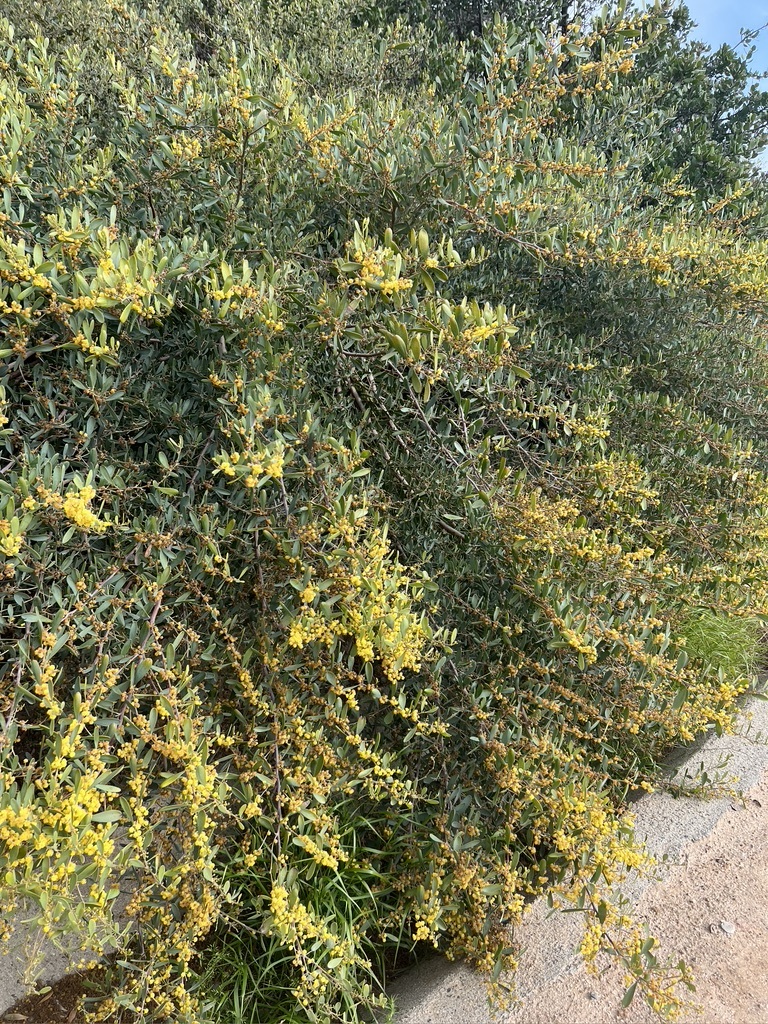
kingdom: Plantae
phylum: Tracheophyta
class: Magnoliopsida
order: Fabales
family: Fabaceae
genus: Acacia
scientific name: Acacia redolens
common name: Bank catclaw
